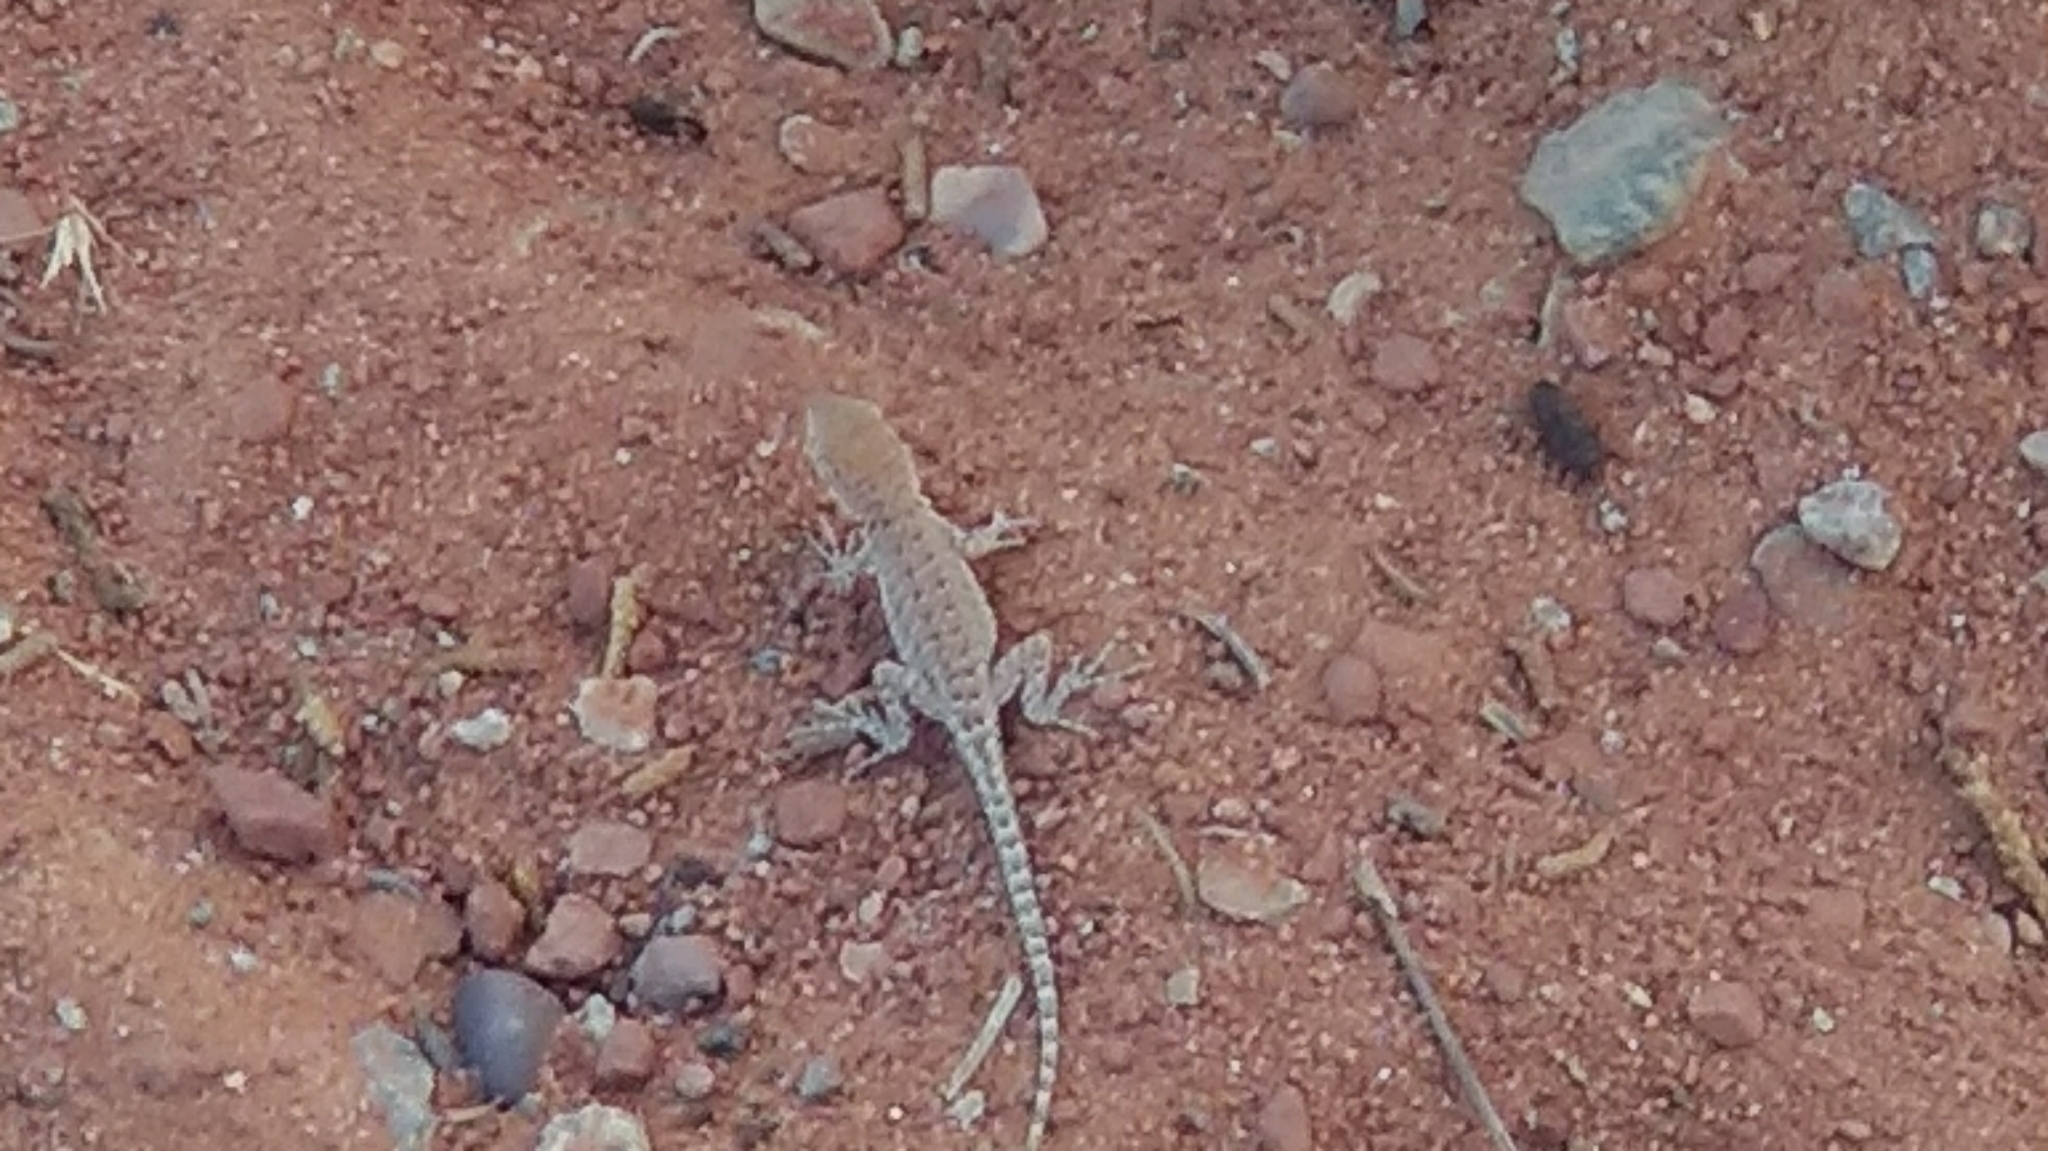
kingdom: Animalia
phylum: Chordata
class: Squamata
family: Phrynosomatidae
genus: Uta
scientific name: Uta stansburiana
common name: Side-blotched lizard
